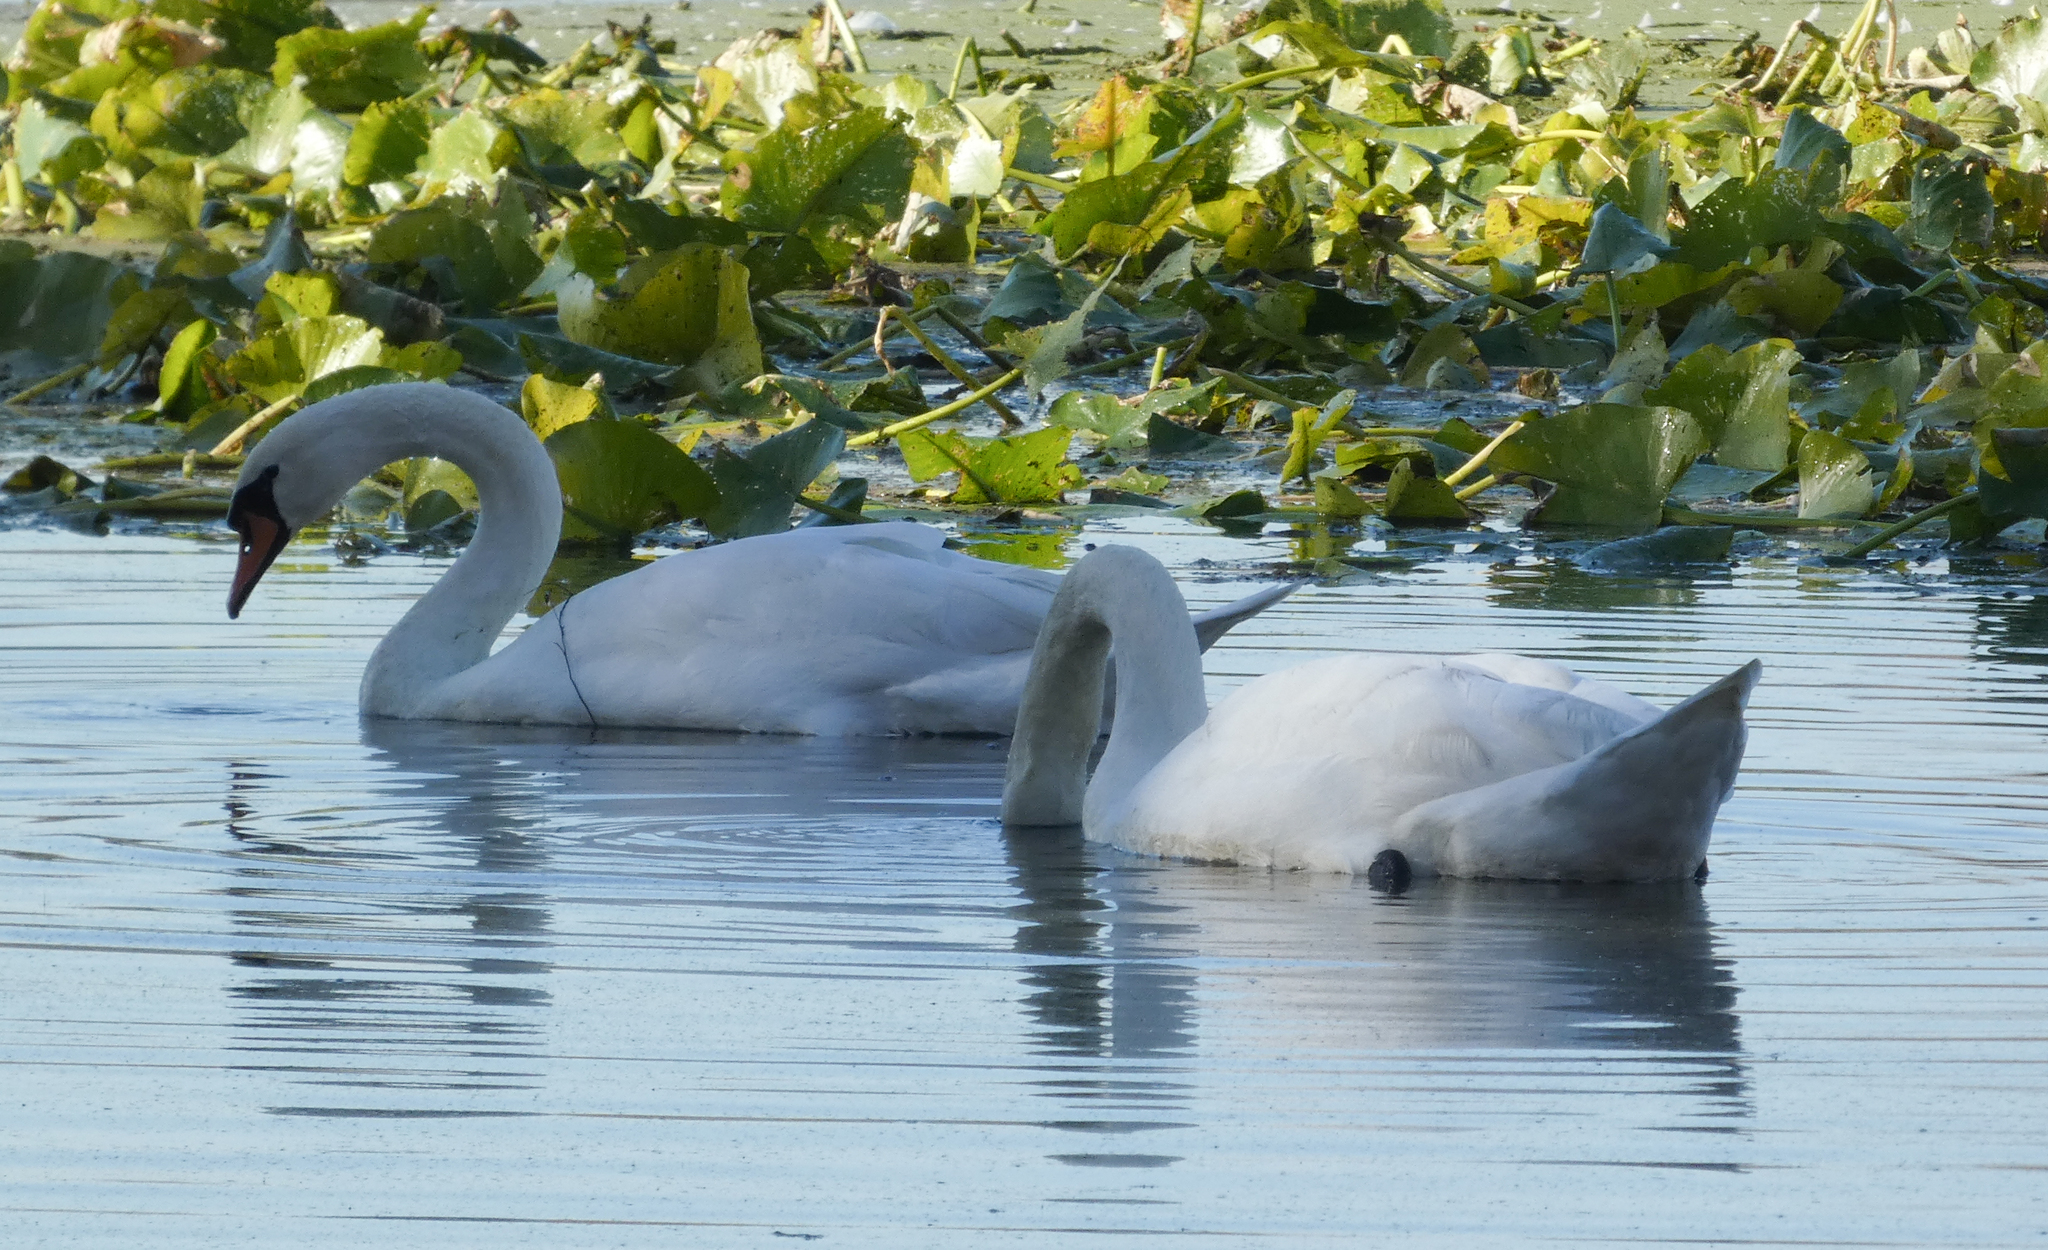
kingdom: Animalia
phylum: Chordata
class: Aves
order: Anseriformes
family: Anatidae
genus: Cygnus
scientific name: Cygnus olor
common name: Mute swan
